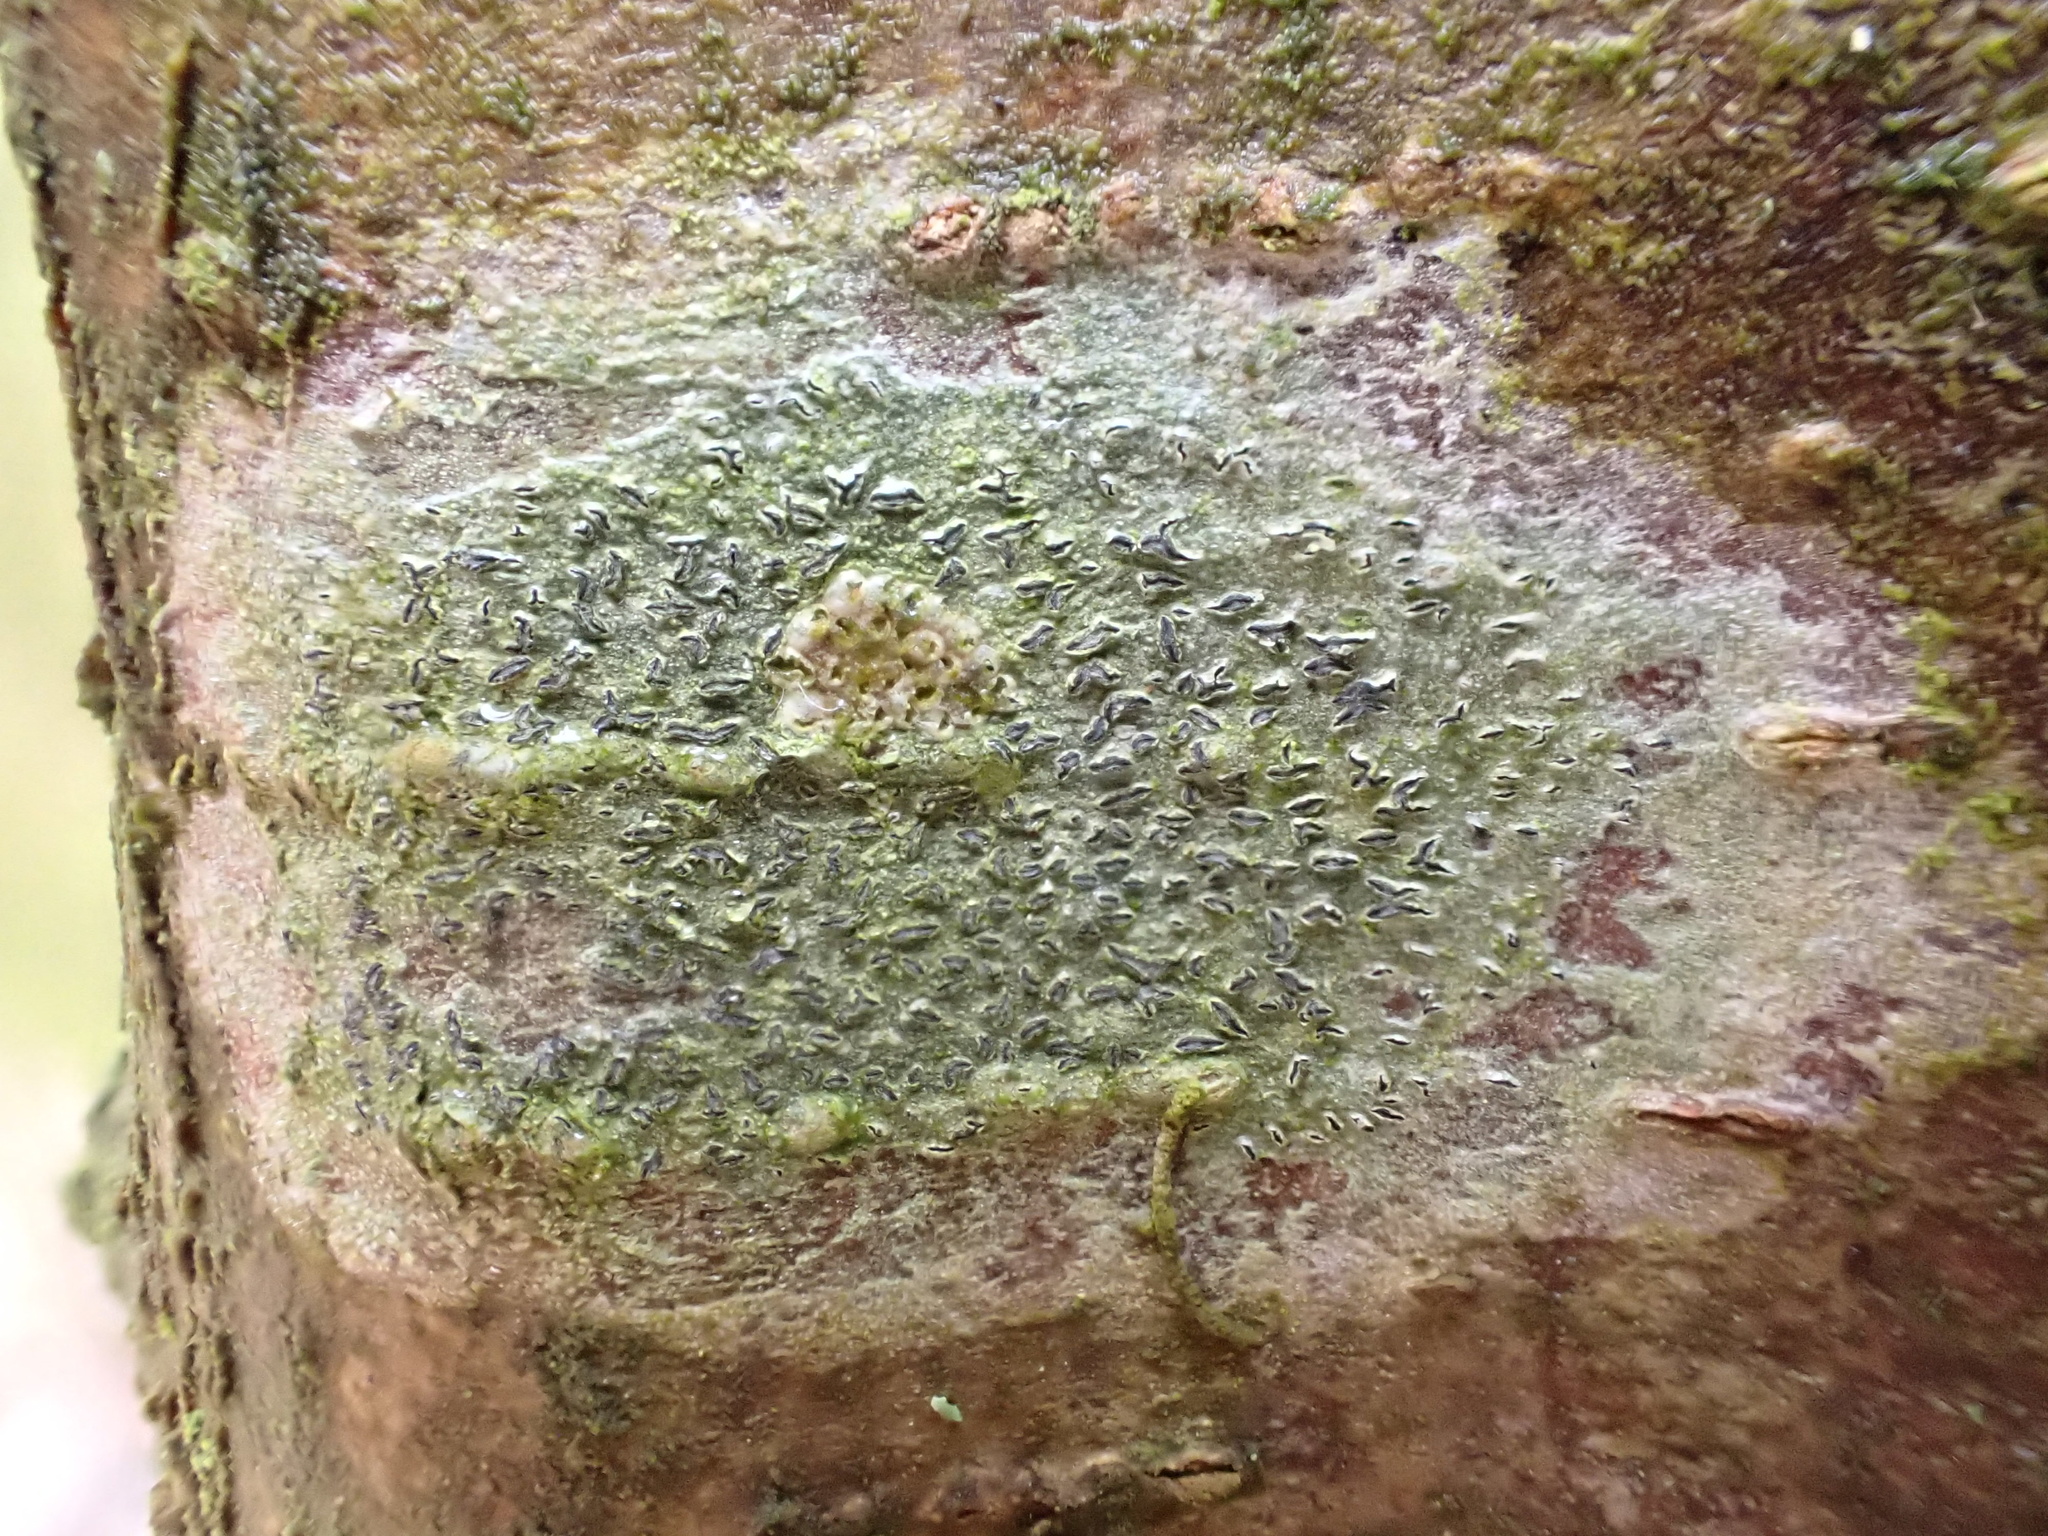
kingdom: Fungi
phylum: Ascomycota
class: Lecanoromycetes
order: Ostropales
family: Graphidaceae
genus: Graphis
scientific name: Graphis scripta
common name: Script lichen
